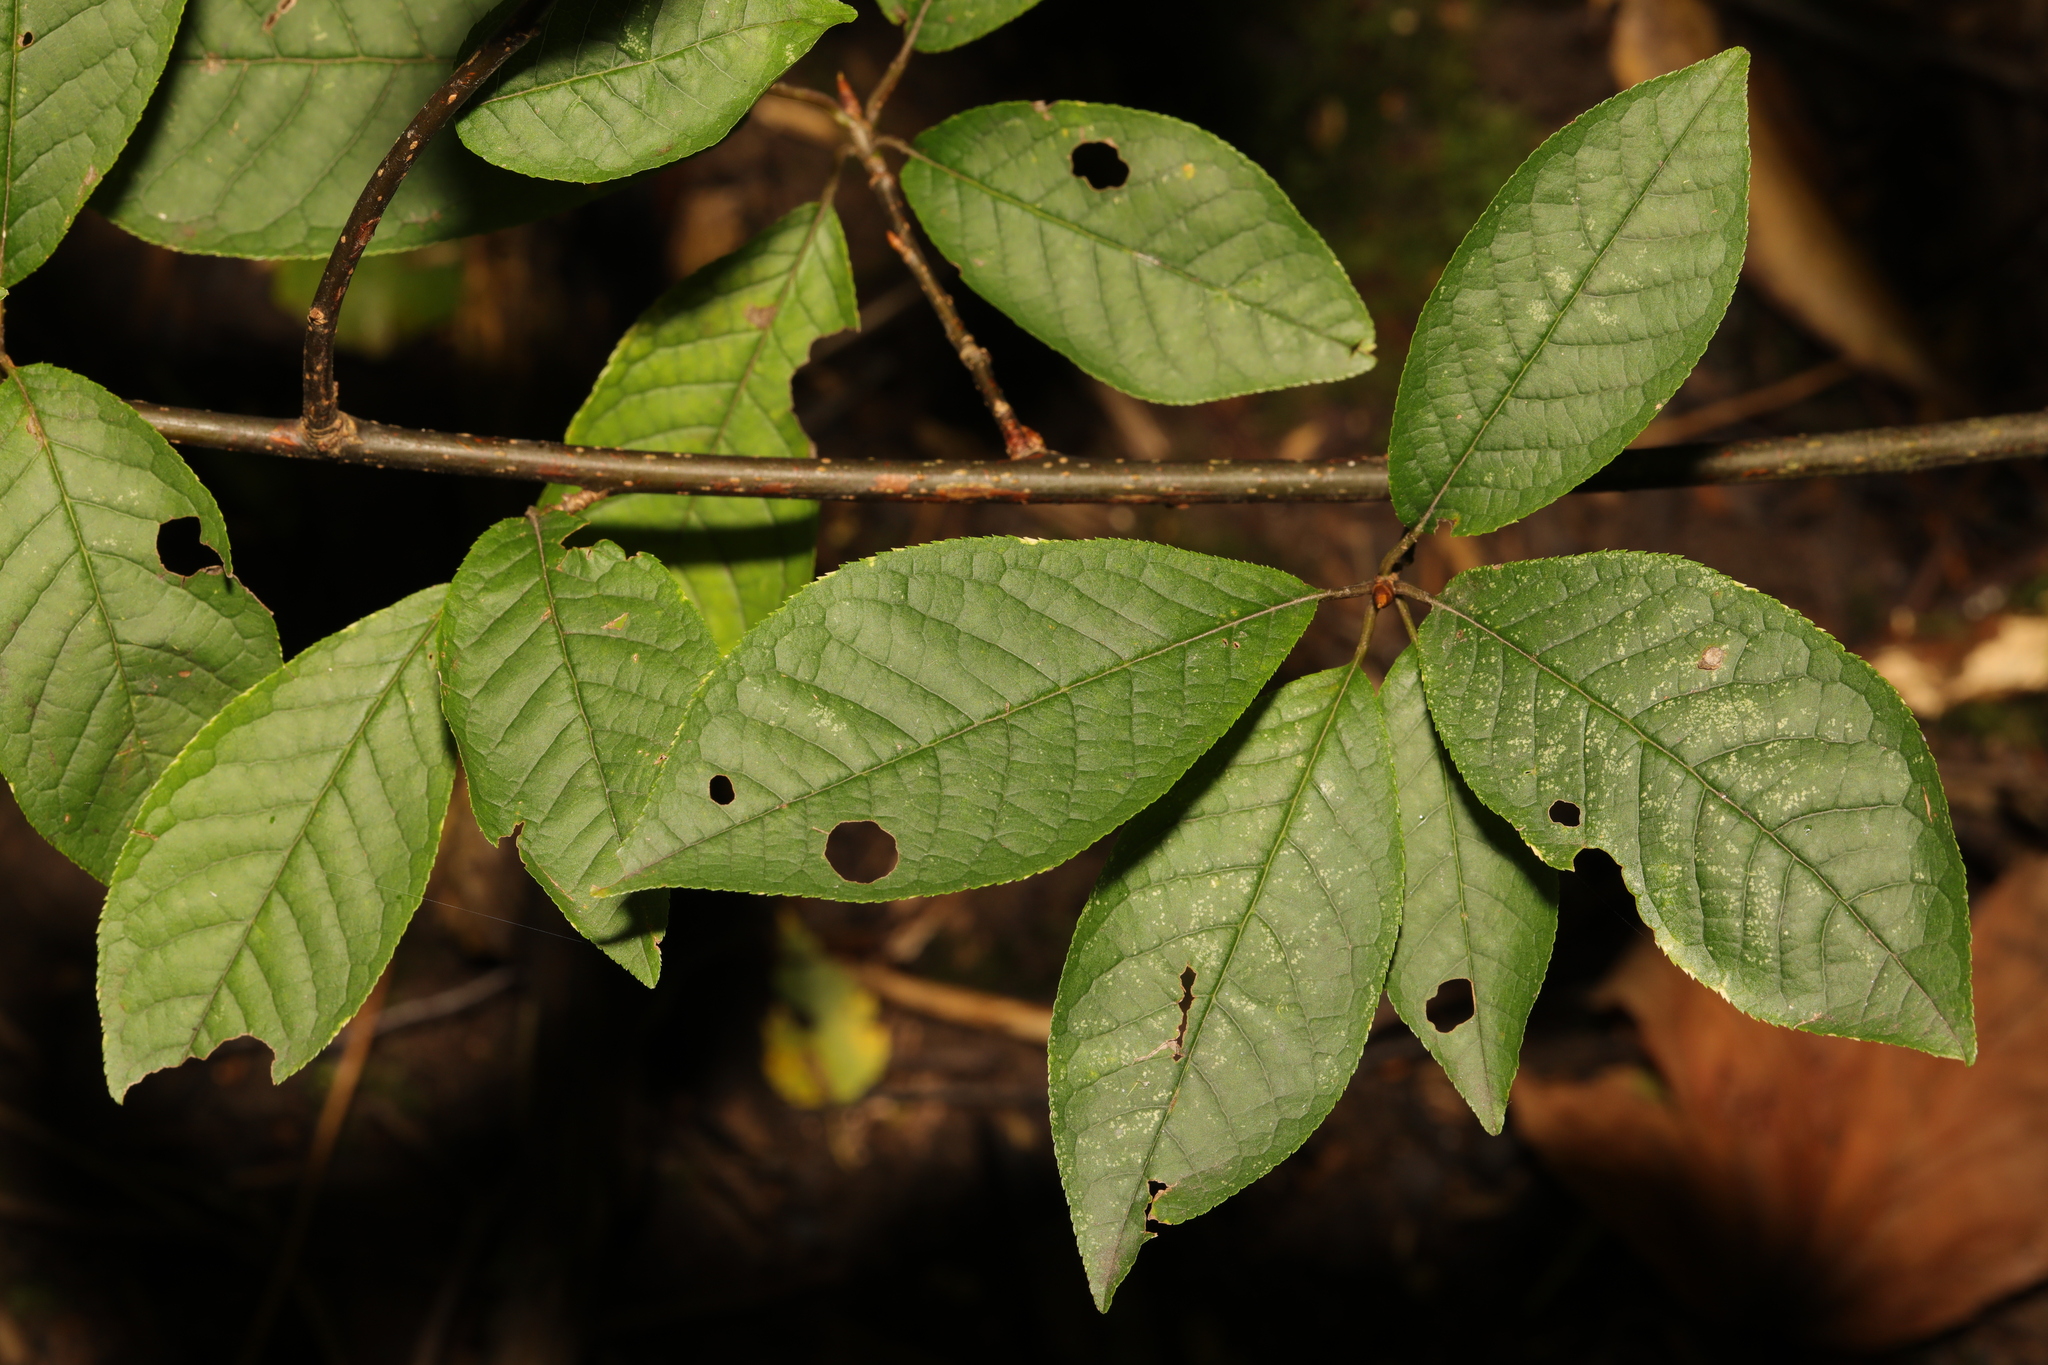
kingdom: Plantae
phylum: Tracheophyta
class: Magnoliopsida
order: Rosales
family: Rosaceae
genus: Prunus
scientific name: Prunus padus
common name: Bird cherry
